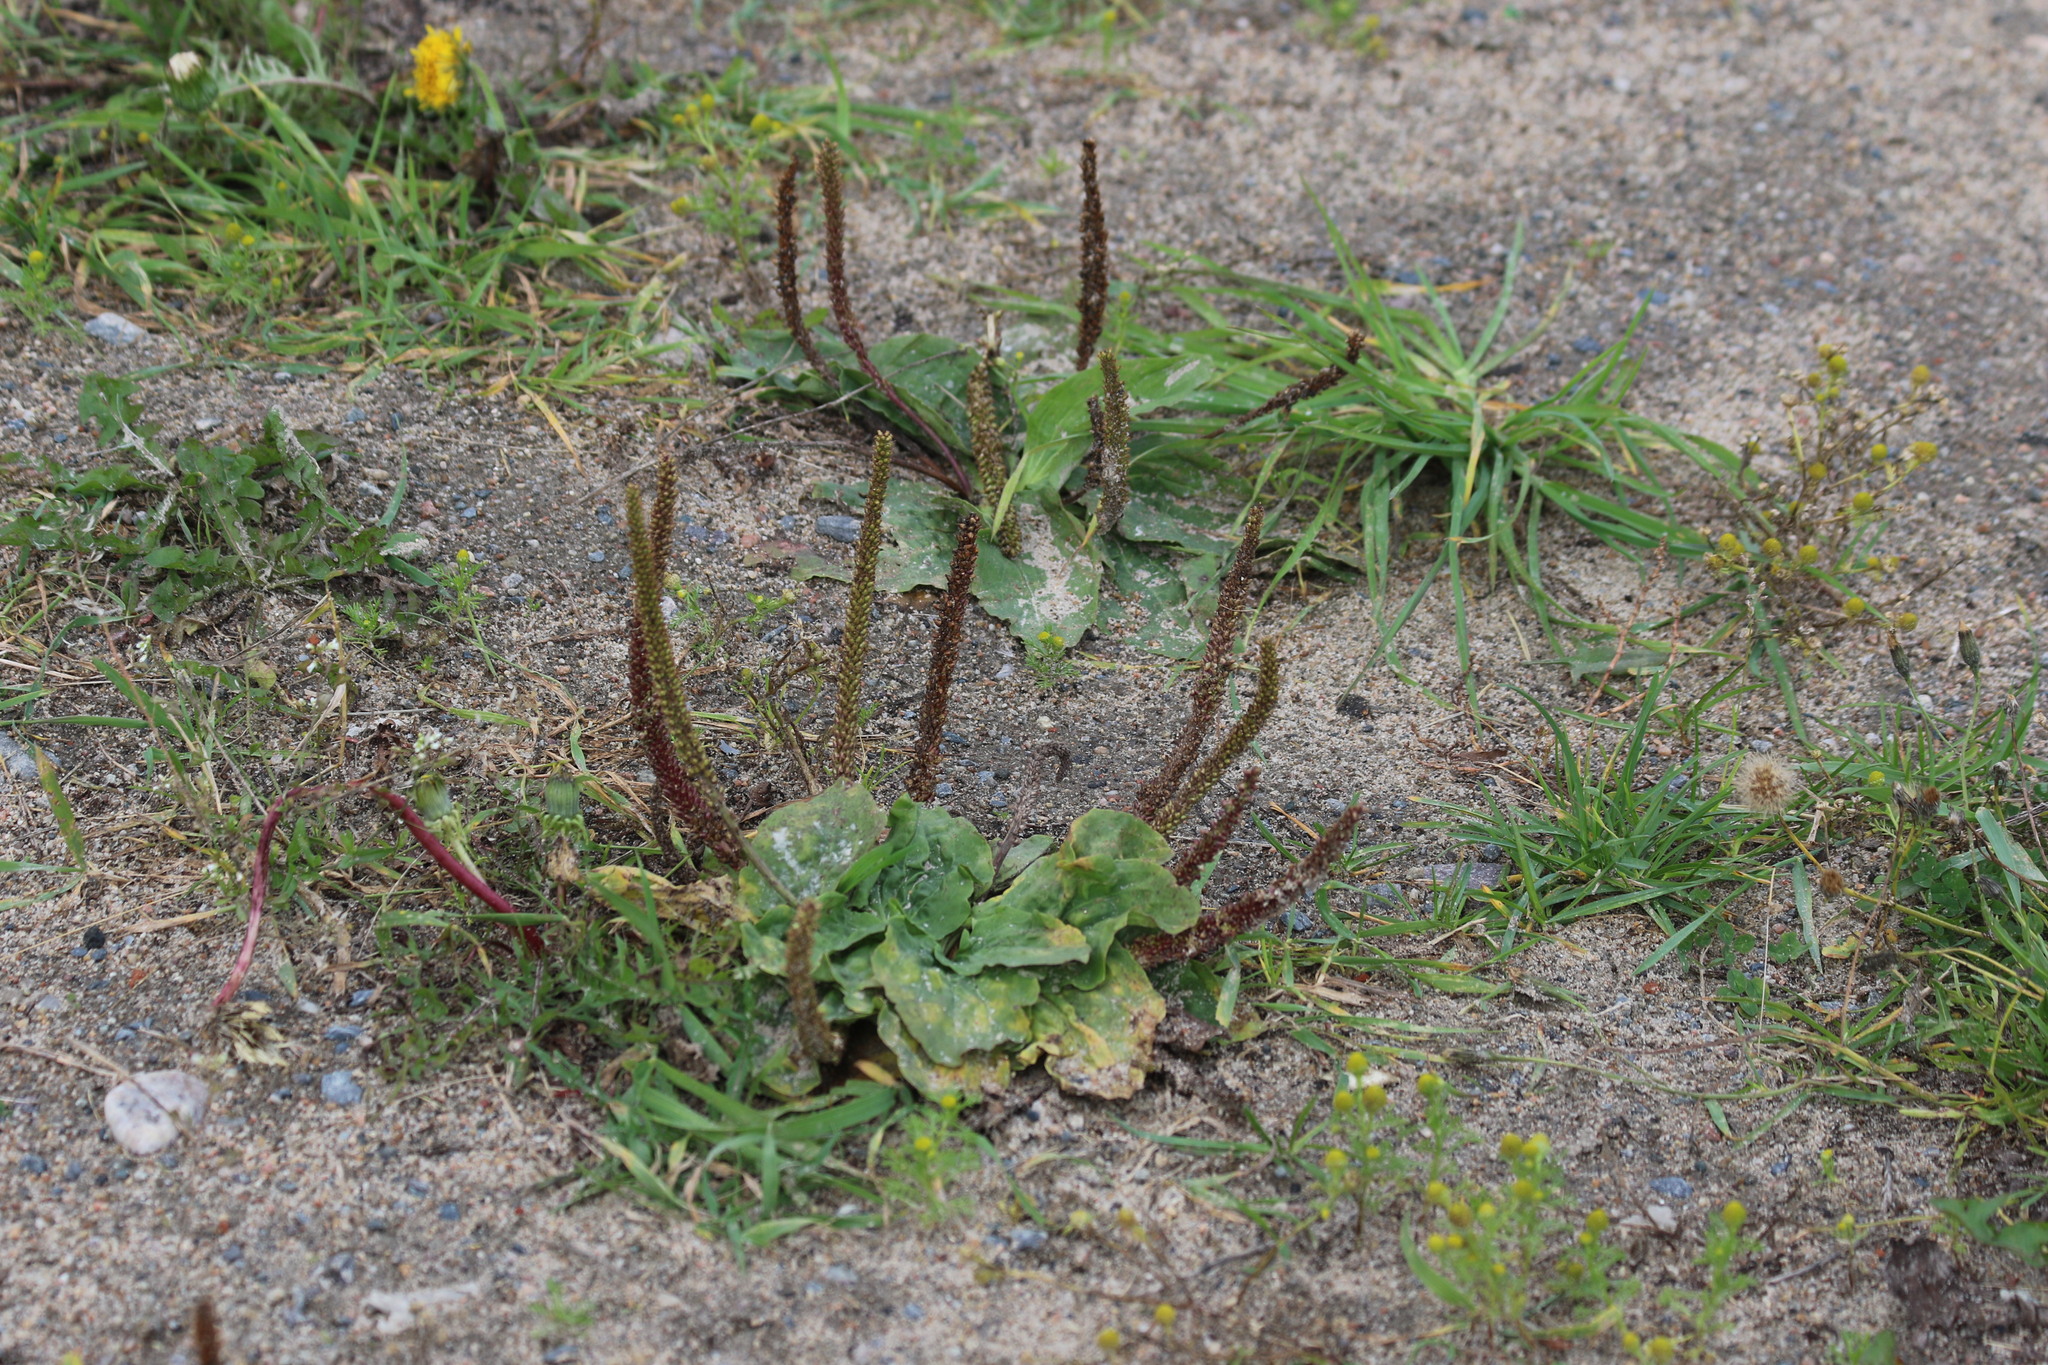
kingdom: Plantae
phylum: Tracheophyta
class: Magnoliopsida
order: Lamiales
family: Plantaginaceae
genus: Plantago
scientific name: Plantago major
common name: Common plantain
